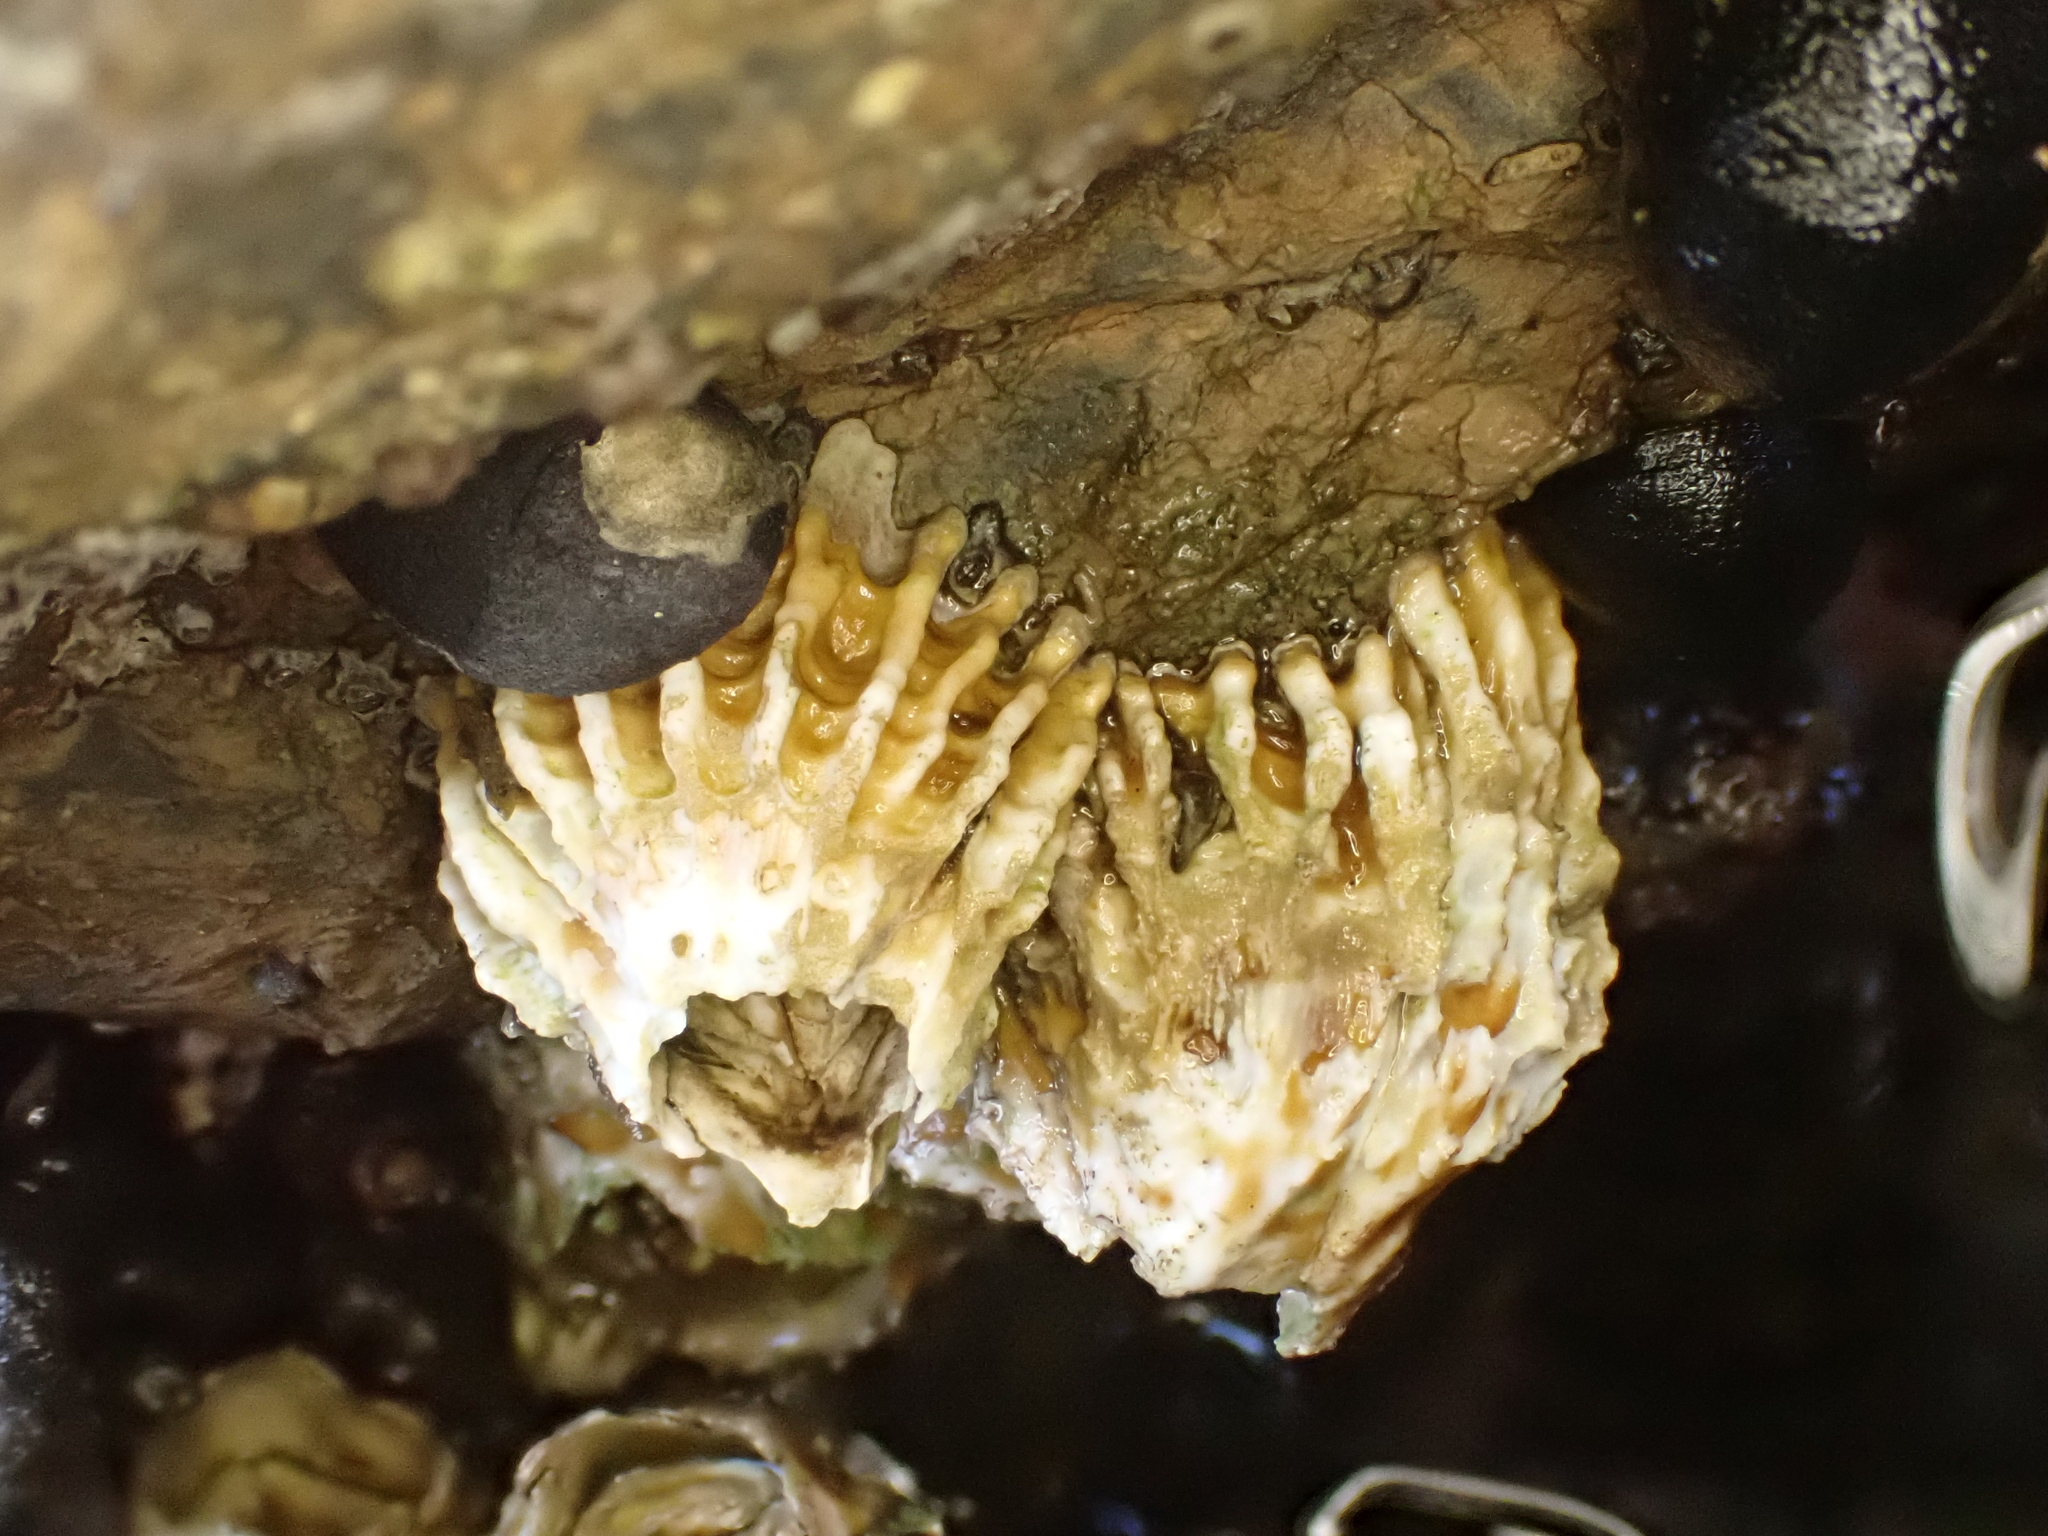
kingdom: Animalia
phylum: Arthropoda
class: Maxillopoda
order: Sessilia
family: Tetraclitidae
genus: Epopella
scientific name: Epopella plicata
